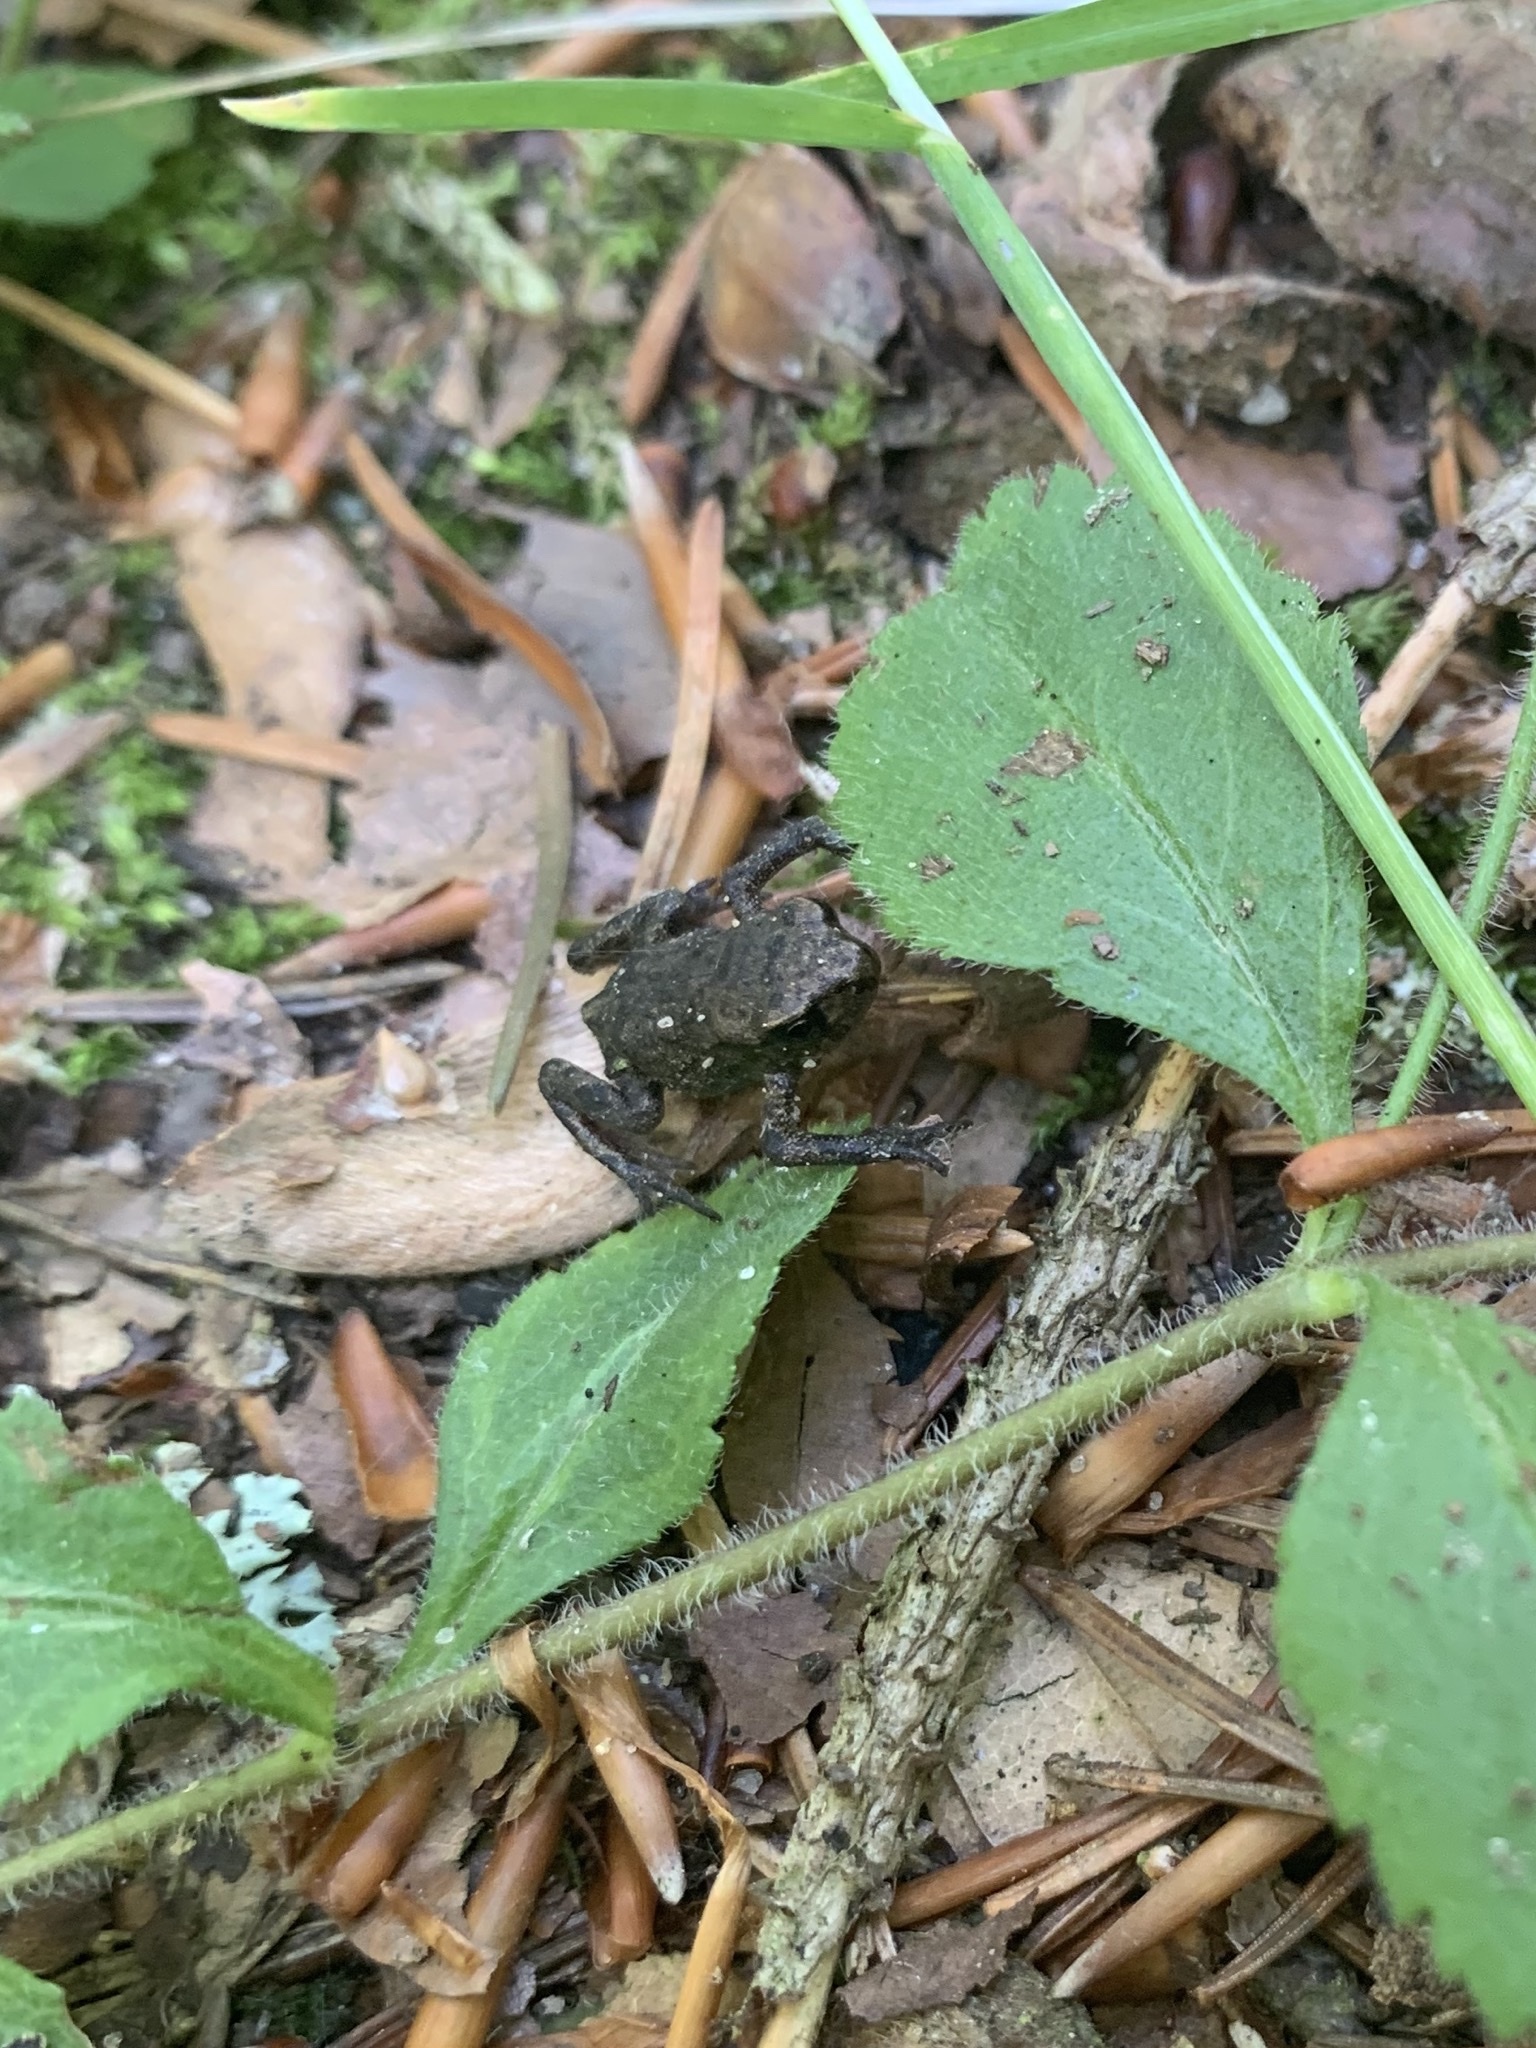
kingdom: Animalia
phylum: Chordata
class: Amphibia
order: Anura
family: Bufonidae
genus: Bufo
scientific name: Bufo bufo
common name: Common toad
